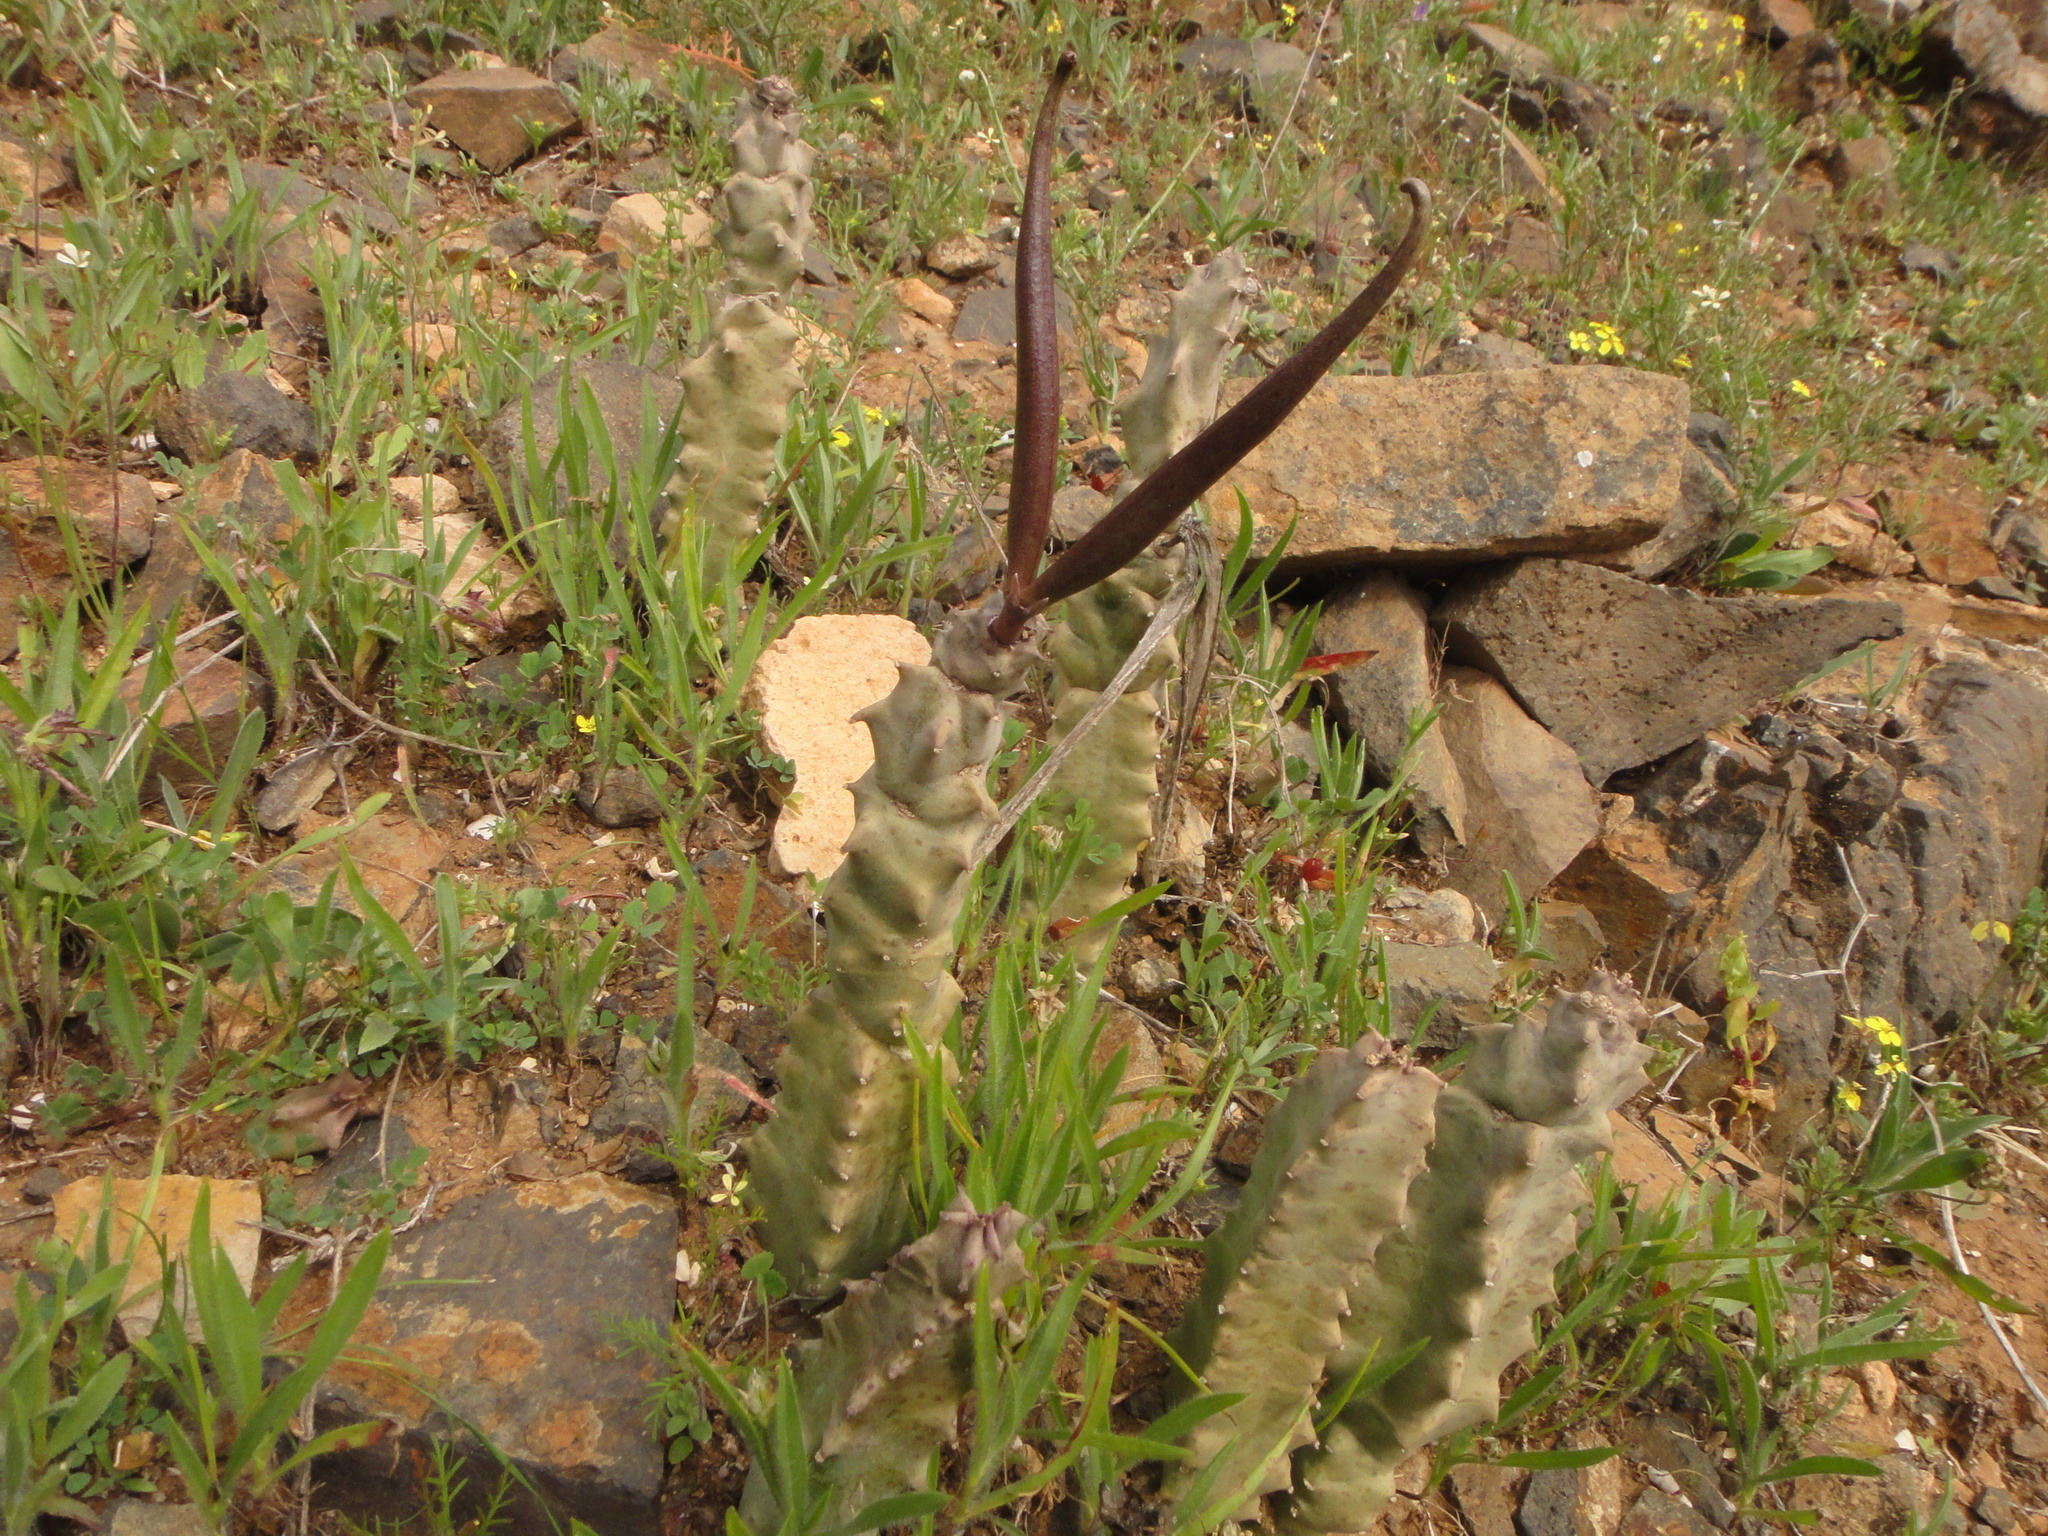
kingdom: Plantae
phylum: Tracheophyta
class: Magnoliopsida
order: Gentianales
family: Apocynaceae
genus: Ceropegia
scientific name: Ceropegia burchardii
